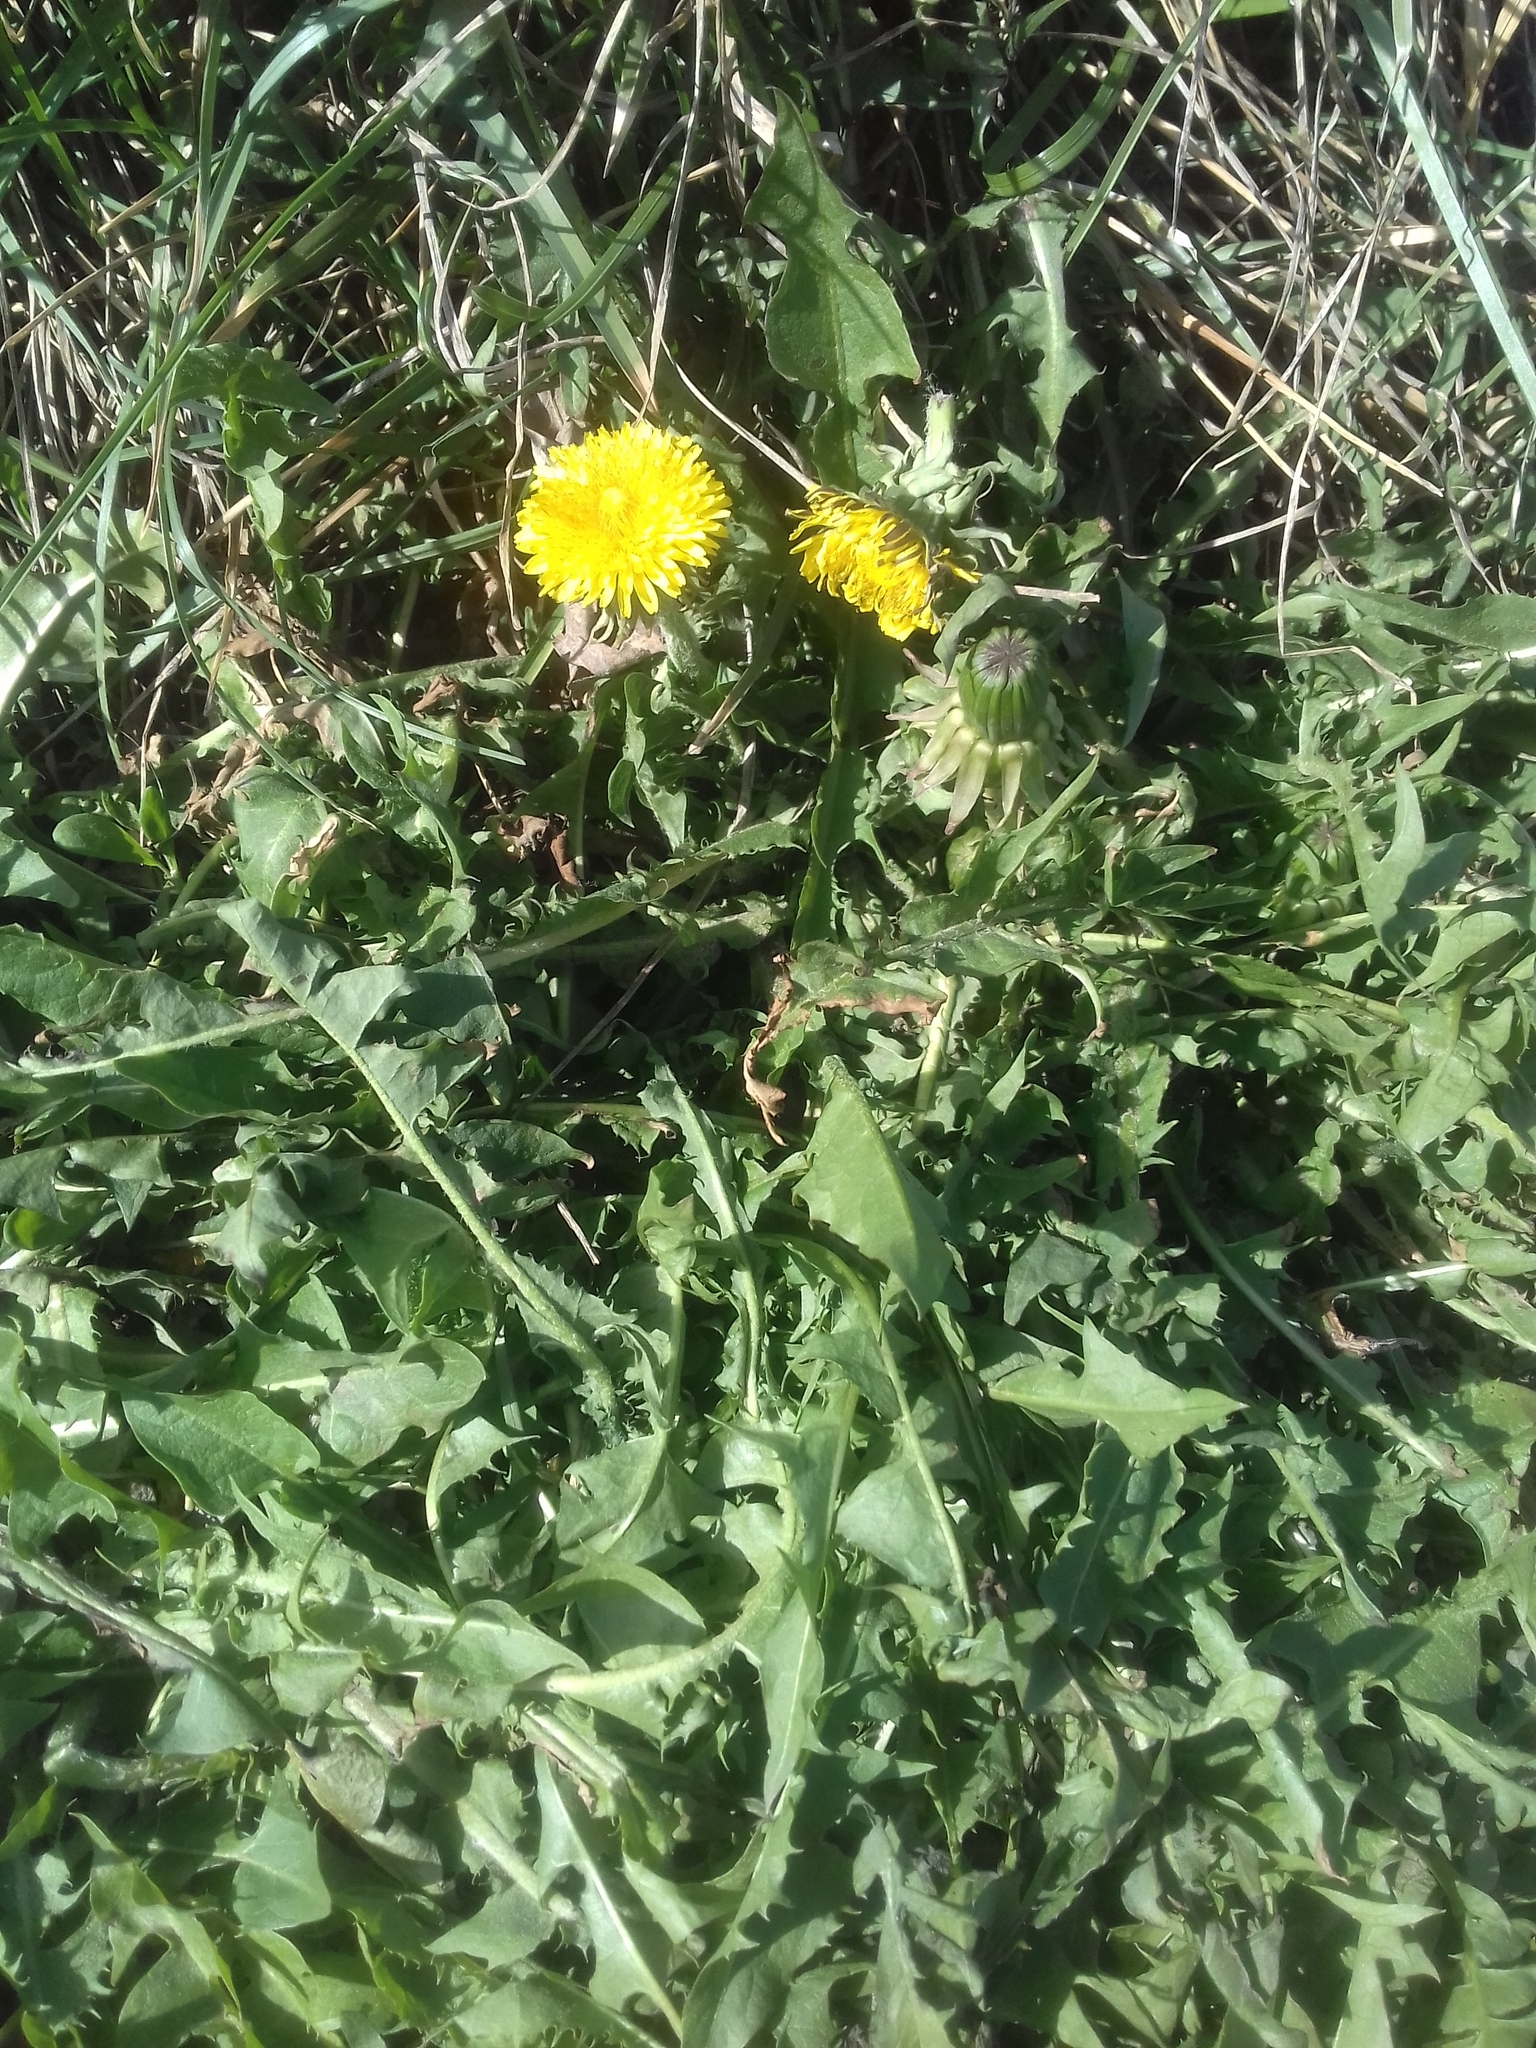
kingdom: Plantae
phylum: Tracheophyta
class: Magnoliopsida
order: Asterales
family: Asteraceae
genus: Taraxacum
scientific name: Taraxacum officinale
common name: Common dandelion
